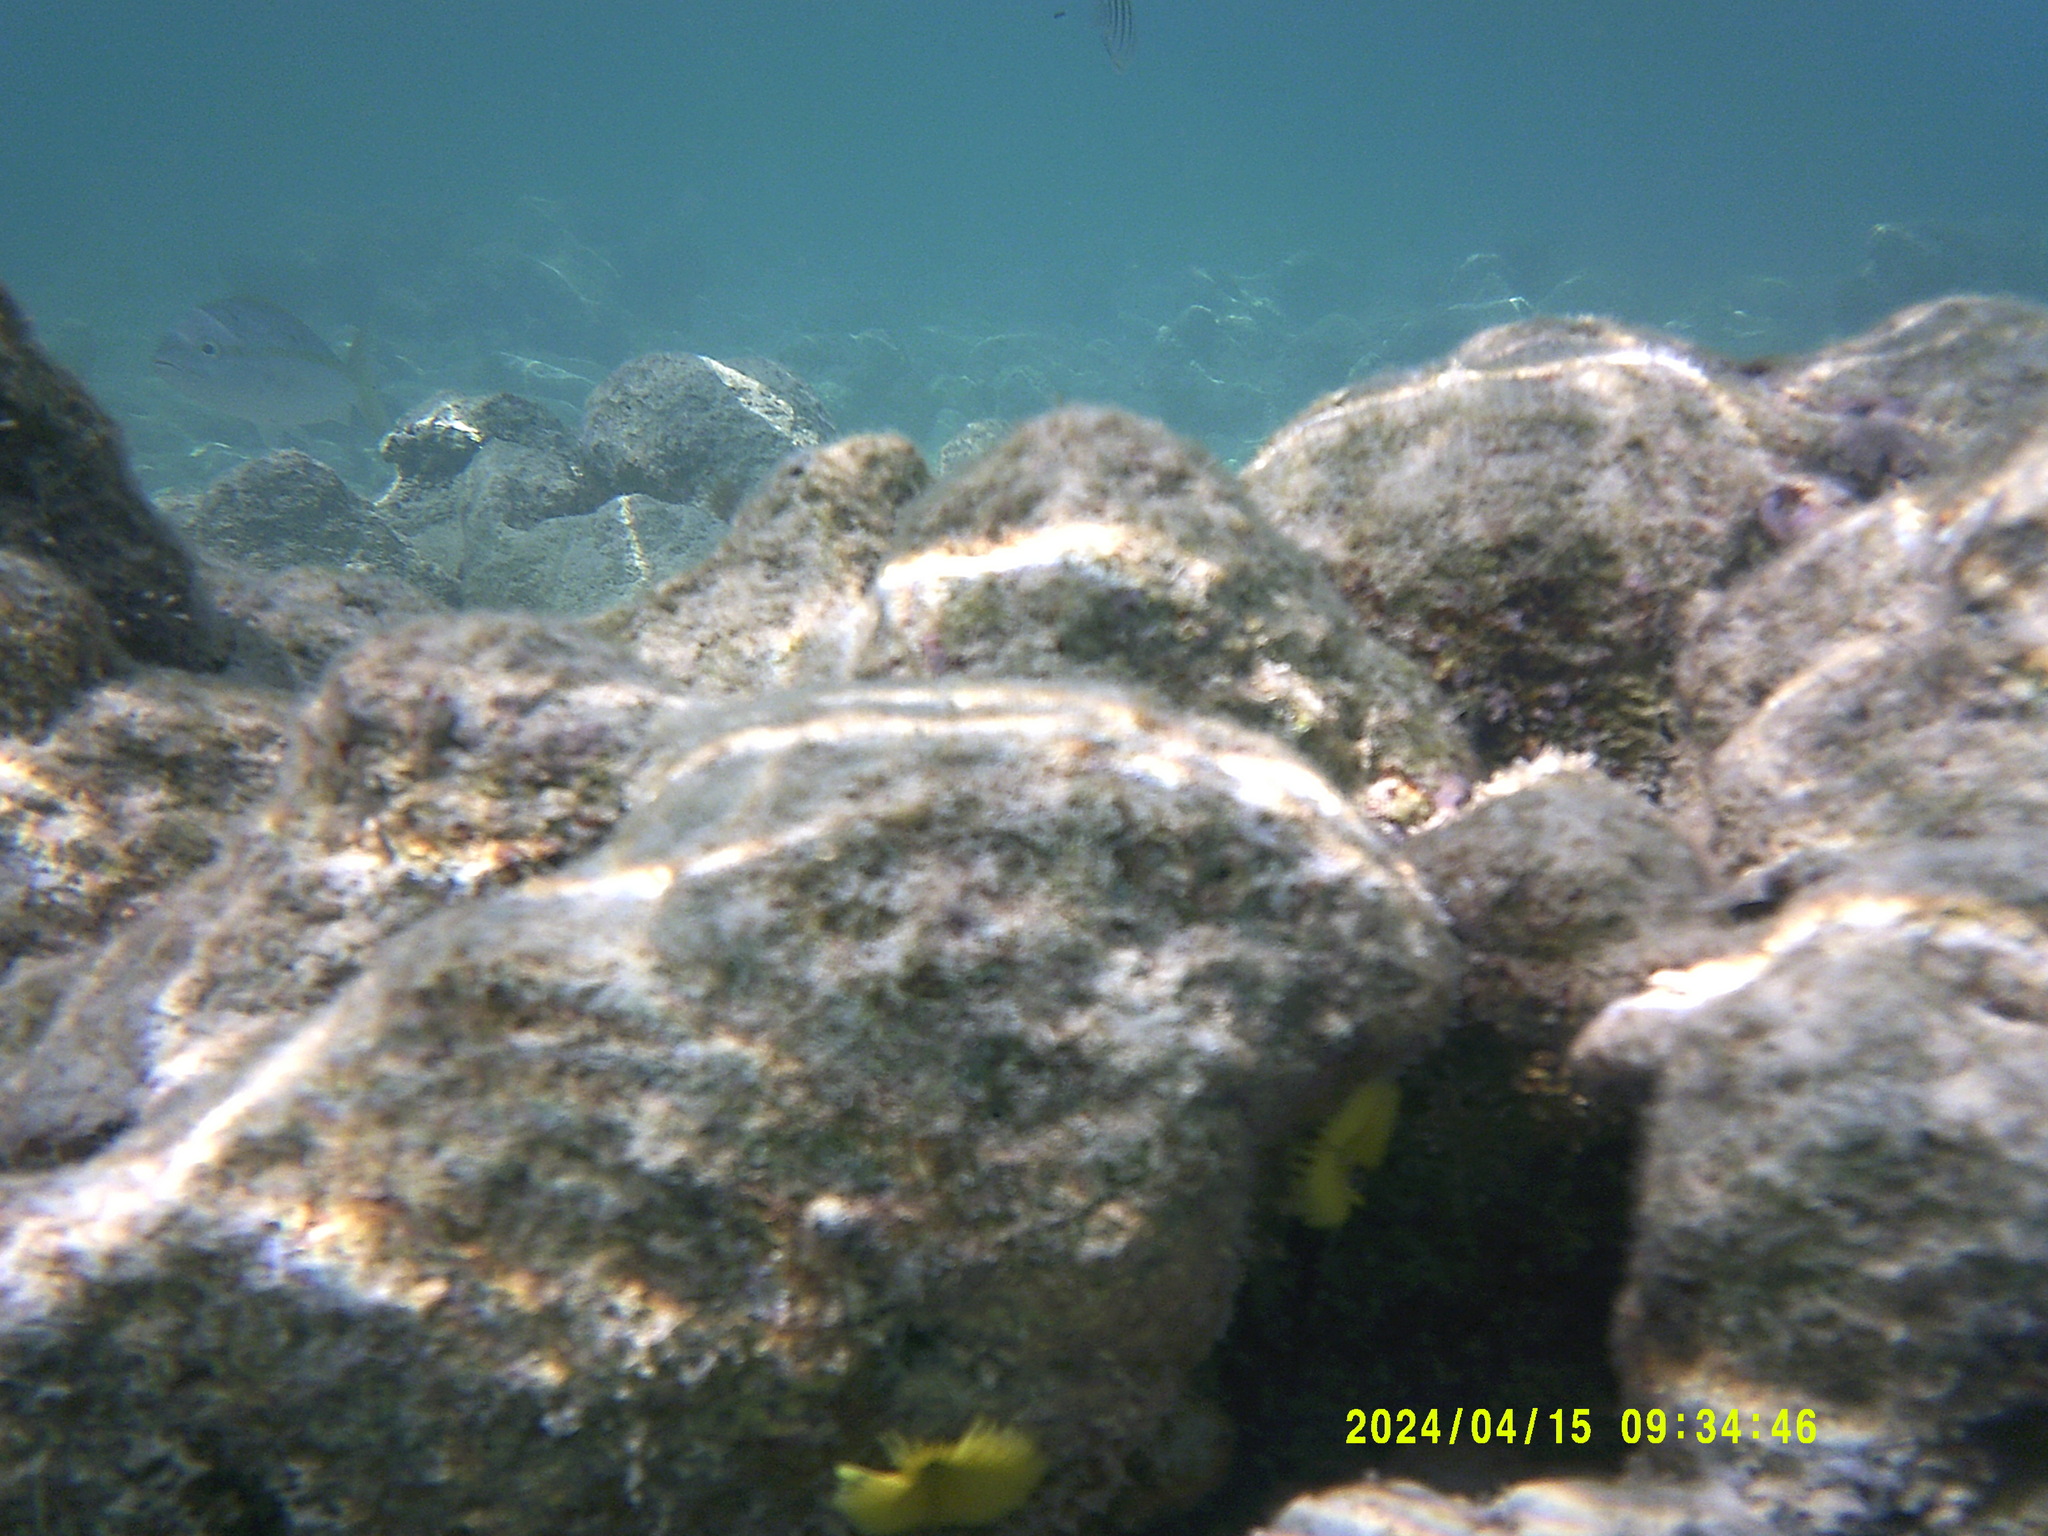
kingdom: Animalia
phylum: Annelida
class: Polychaeta
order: Sabellida
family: Sabellidae
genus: Notaulax
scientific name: Notaulax occidentalis
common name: Yellow fanworm
